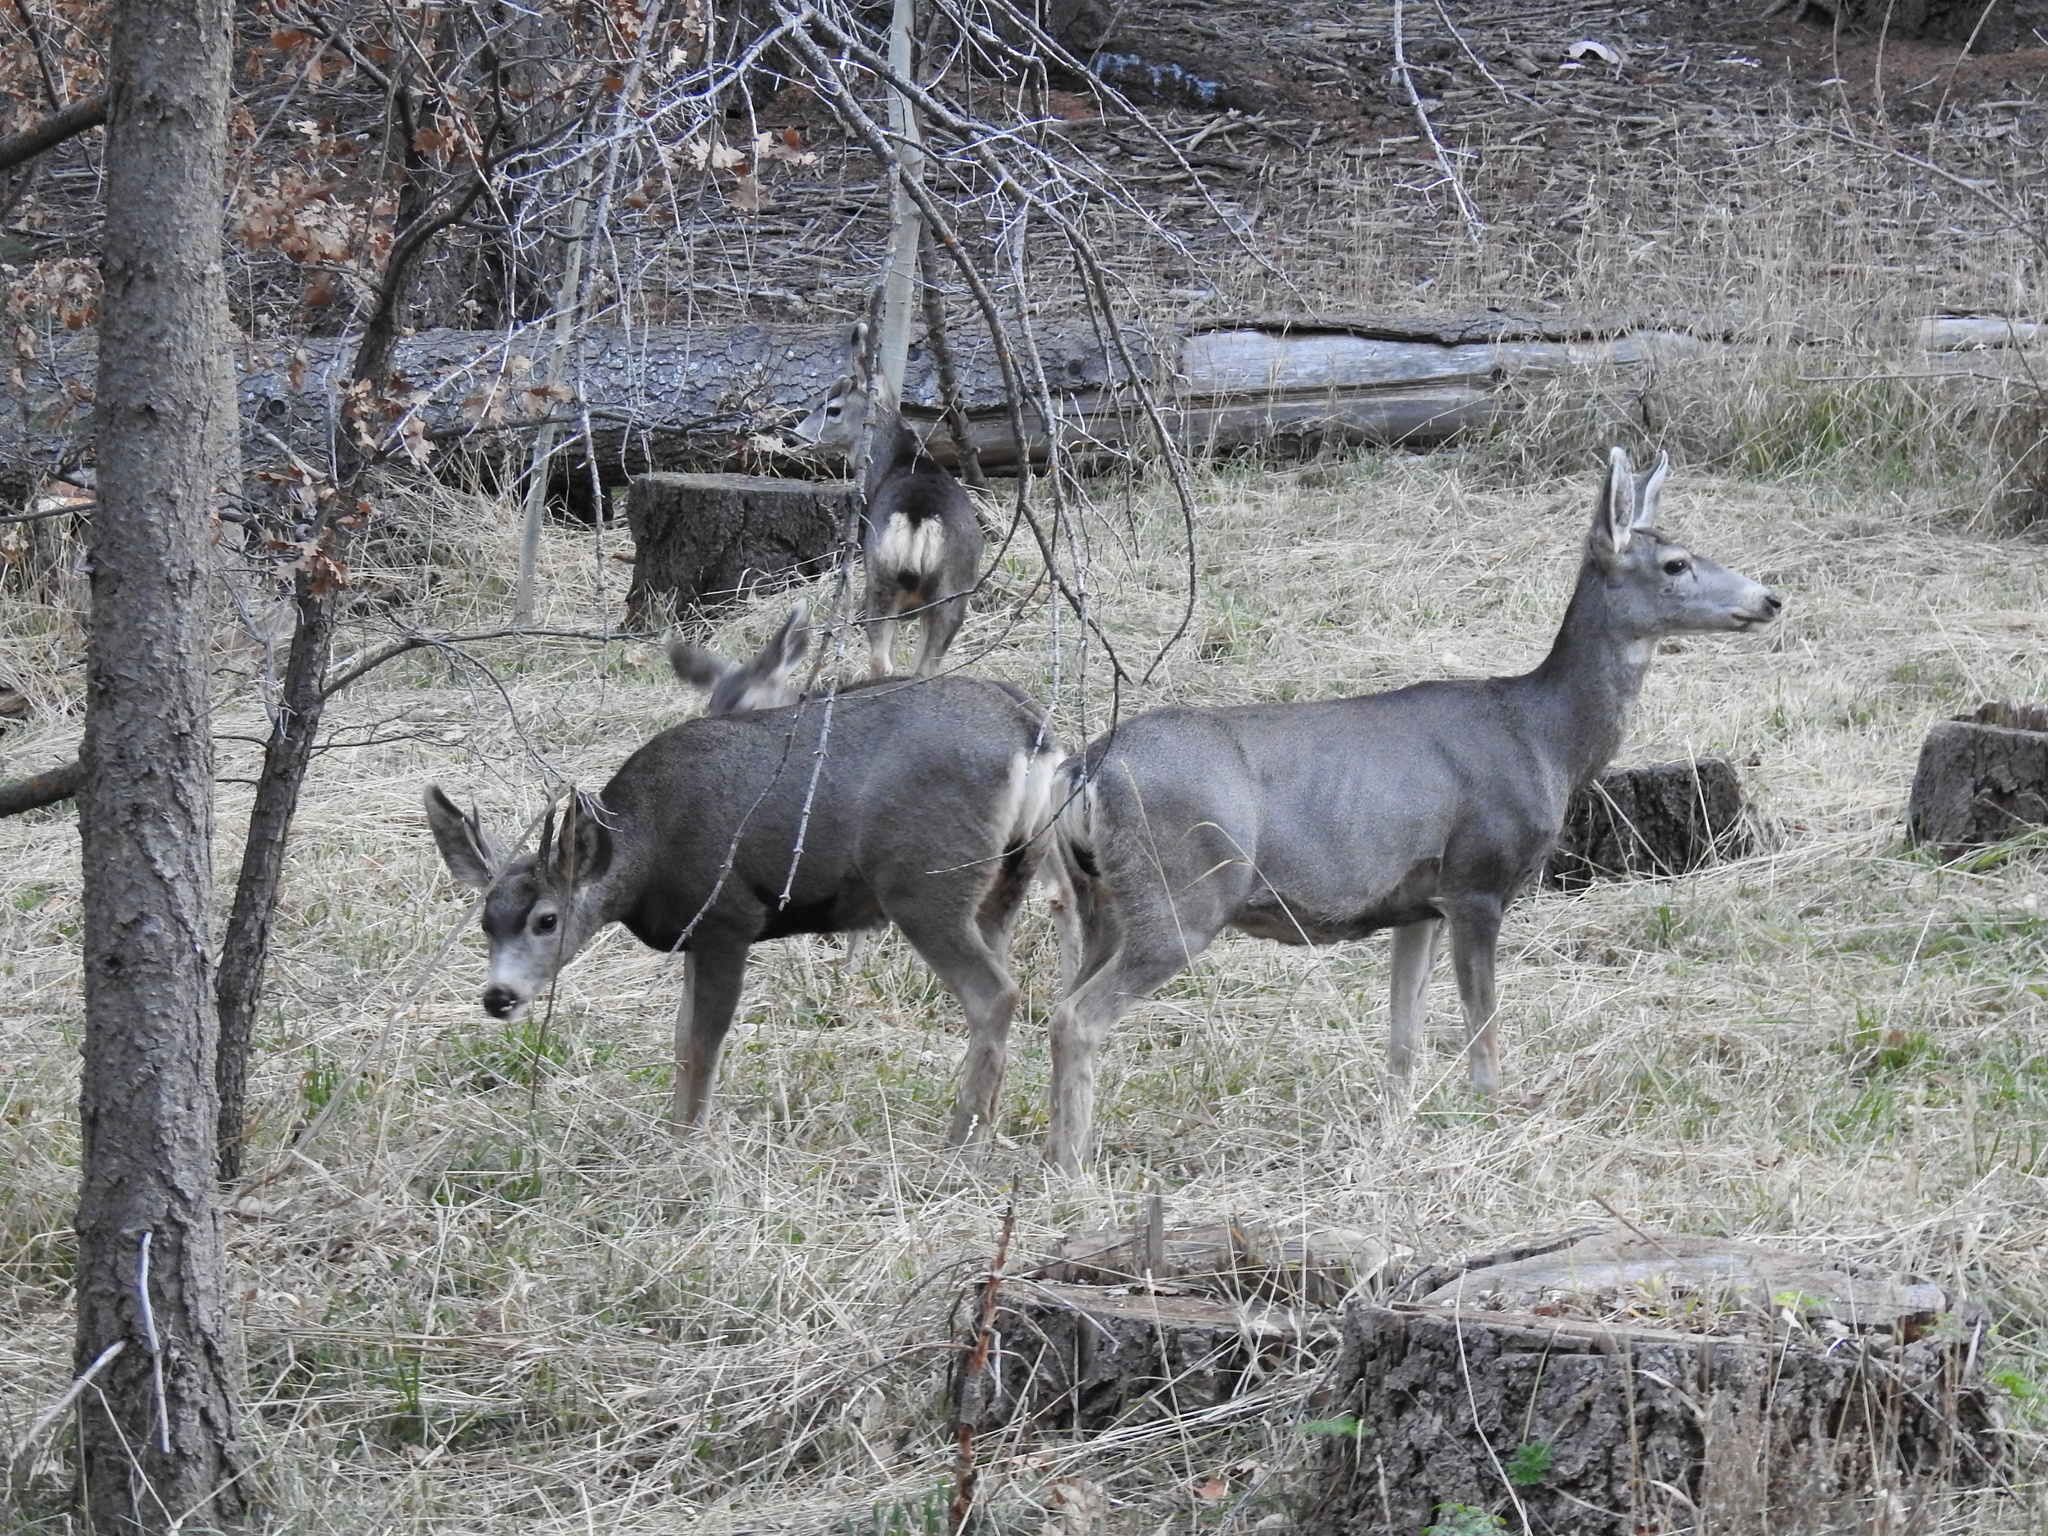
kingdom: Animalia
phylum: Chordata
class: Mammalia
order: Artiodactyla
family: Cervidae
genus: Odocoileus
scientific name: Odocoileus hemionus
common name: Mule deer
